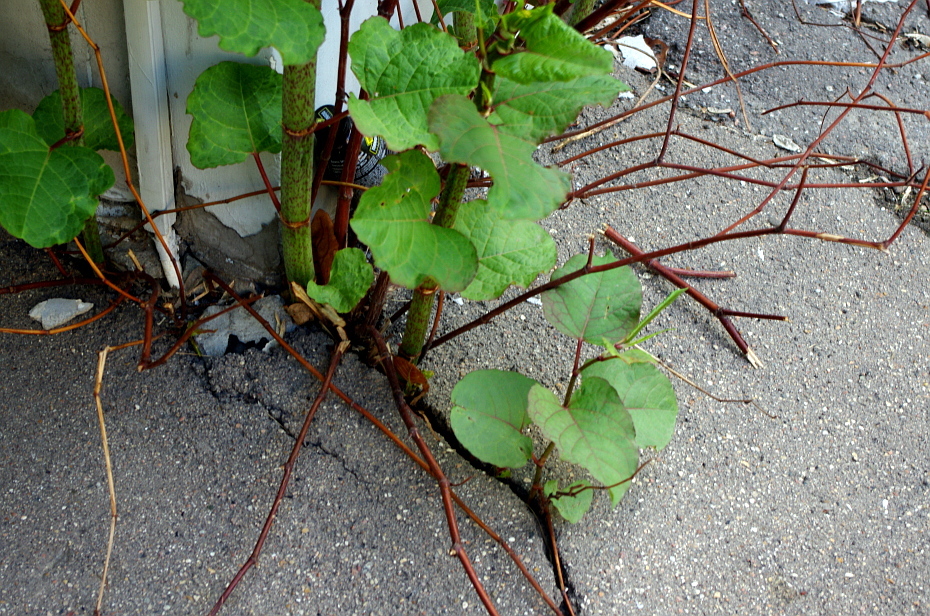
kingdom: Plantae
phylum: Tracheophyta
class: Magnoliopsida
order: Caryophyllales
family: Polygonaceae
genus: Reynoutria
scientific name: Reynoutria bohemica
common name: Bohemian knotweed
